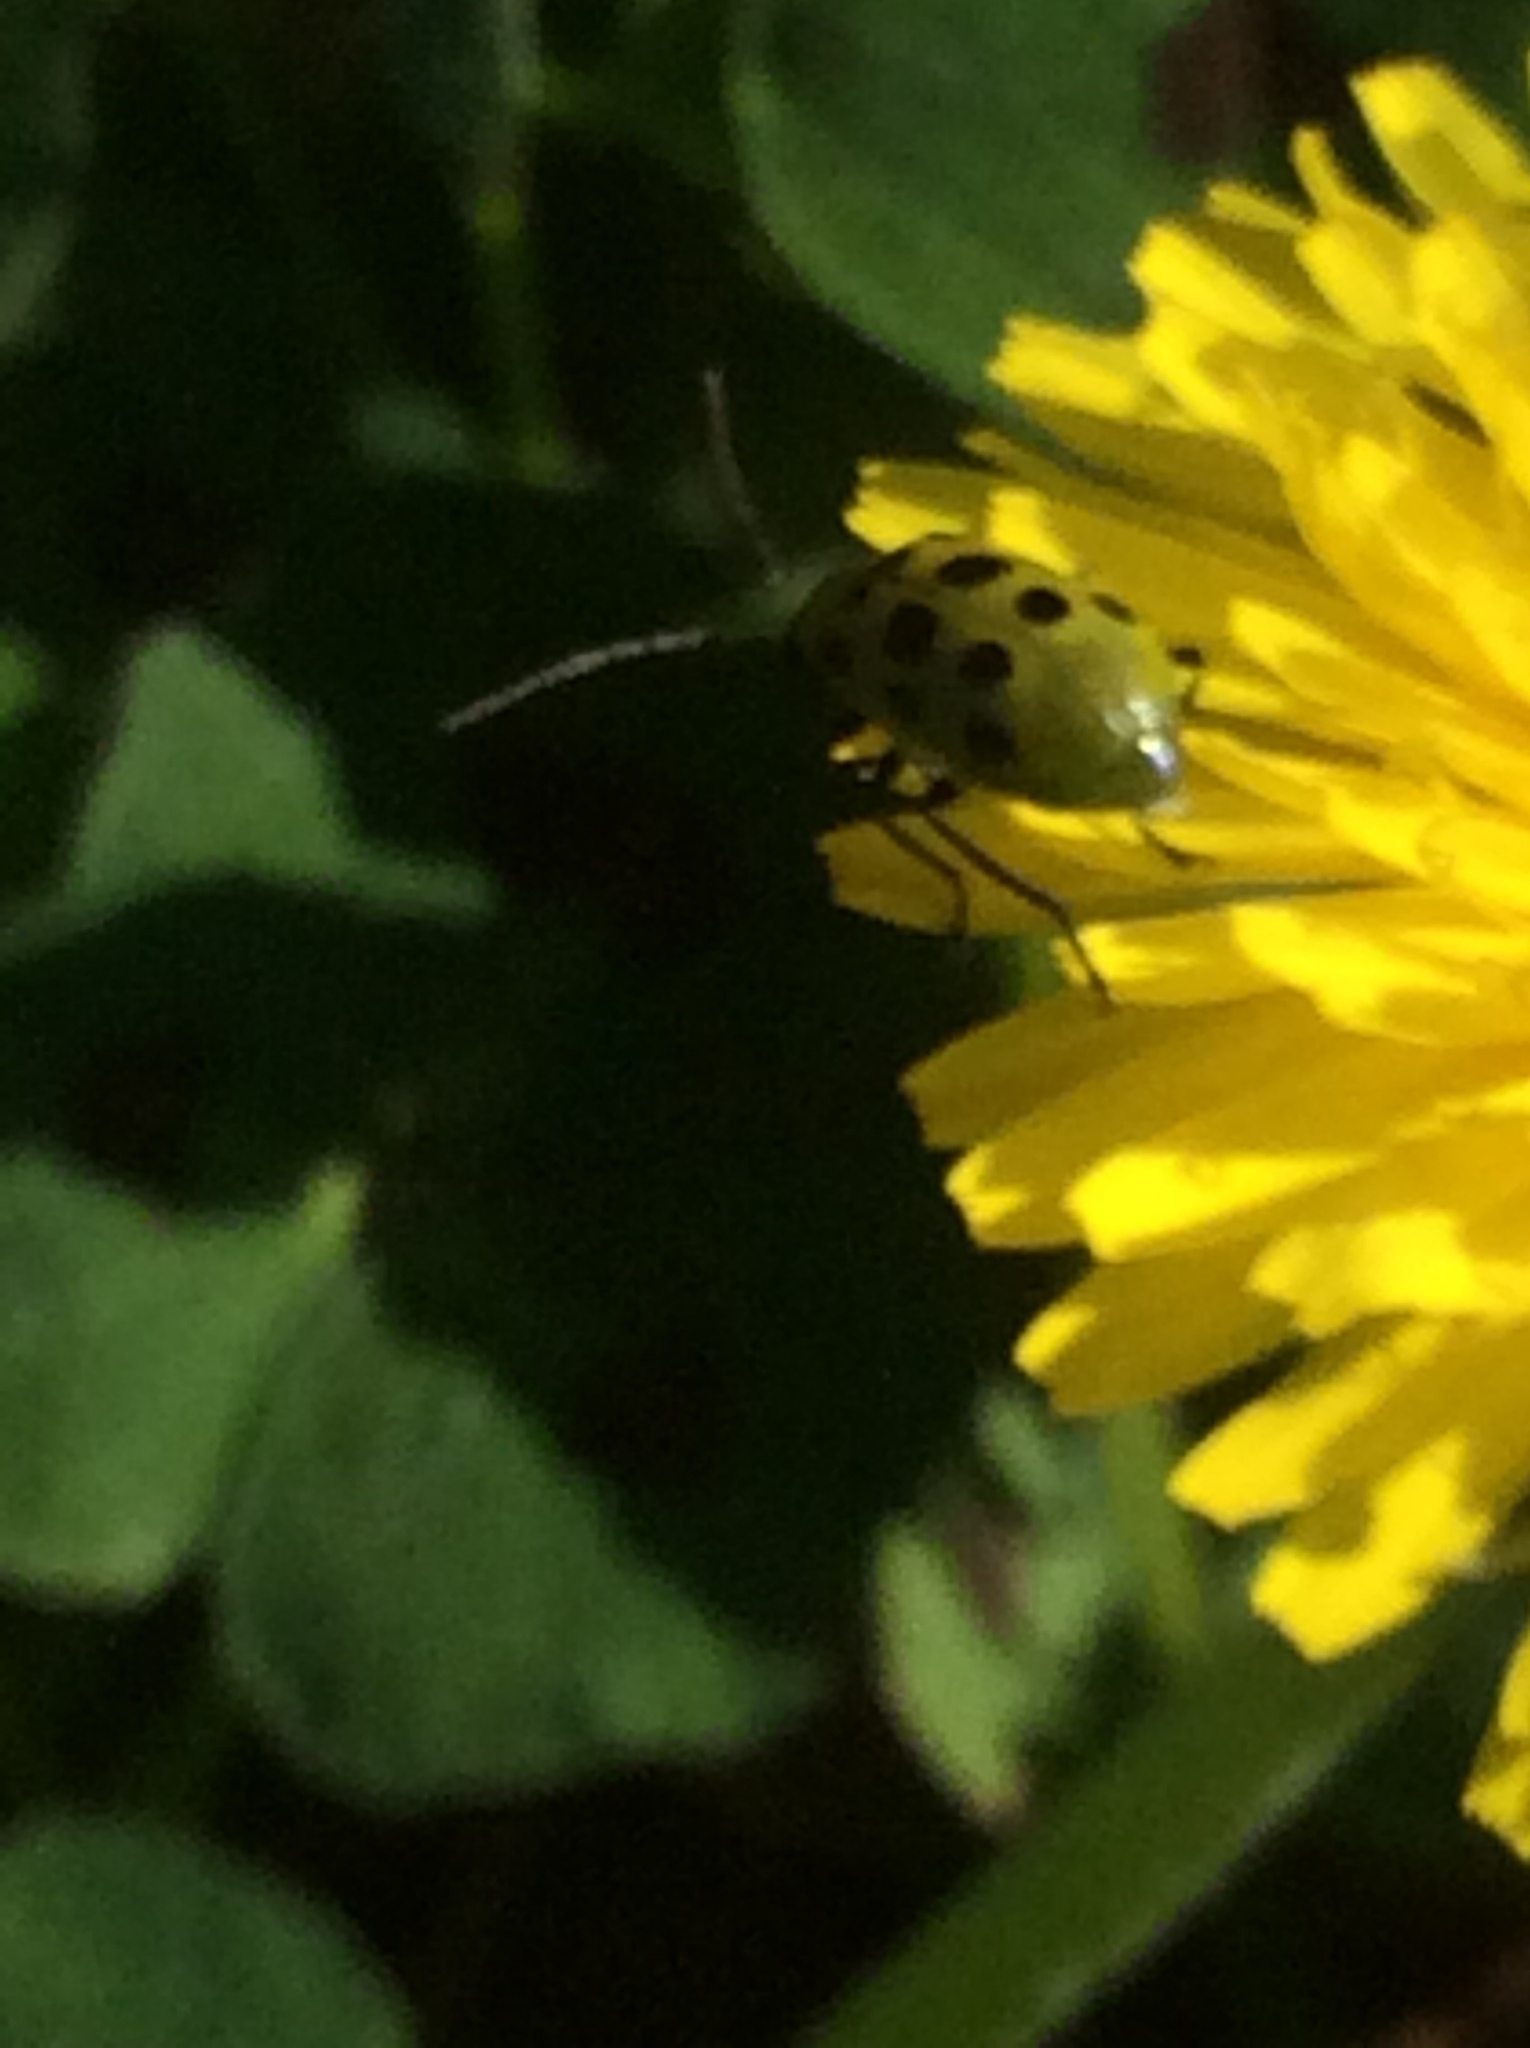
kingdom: Animalia
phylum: Arthropoda
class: Insecta
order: Coleoptera
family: Chrysomelidae
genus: Diabrotica
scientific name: Diabrotica undecimpunctata
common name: Spotted cucumber beetle
